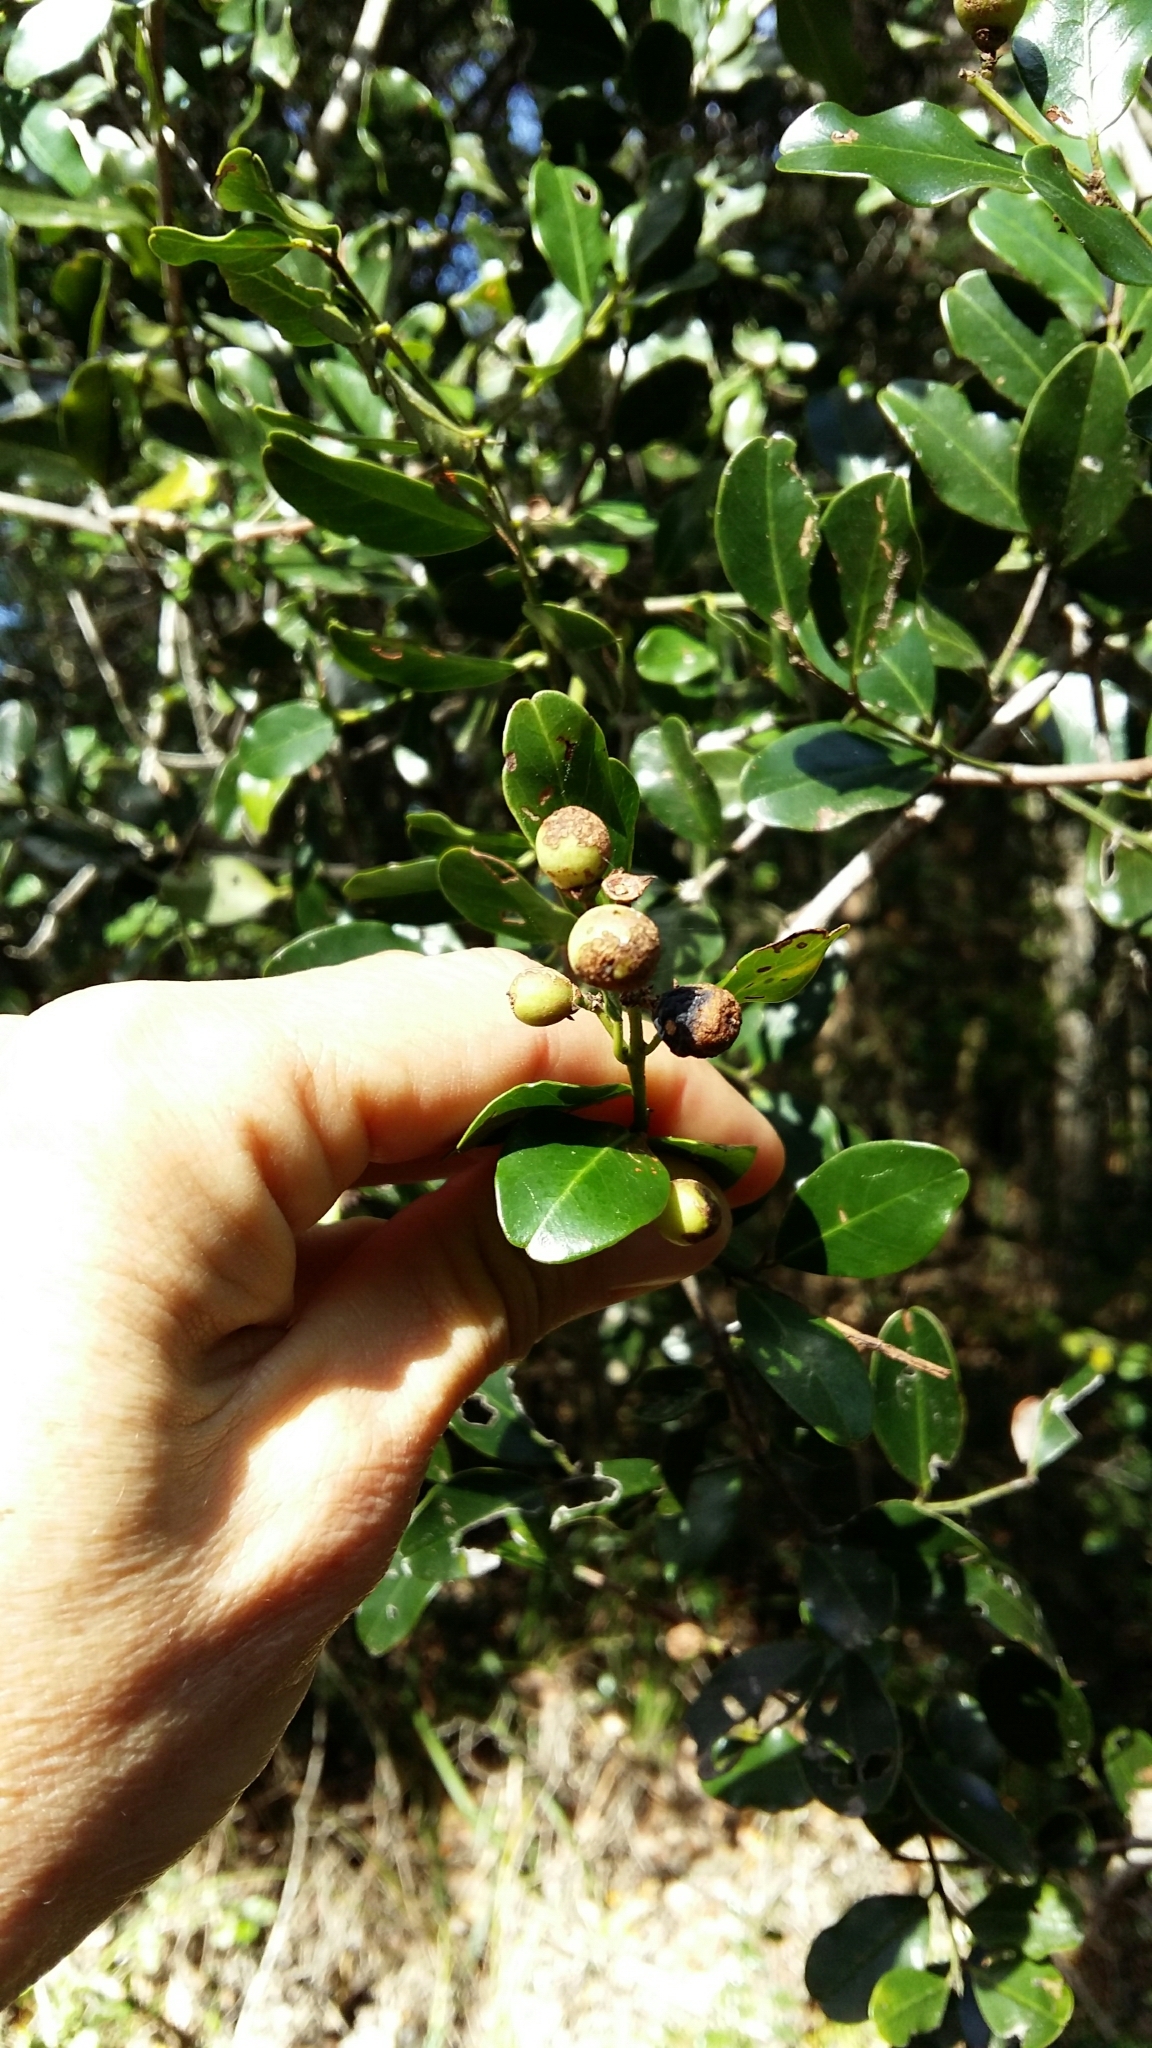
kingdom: Plantae
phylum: Tracheophyta
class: Magnoliopsida
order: Rosales
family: Rhamnaceae
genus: Scutia
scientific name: Scutia myrtina
